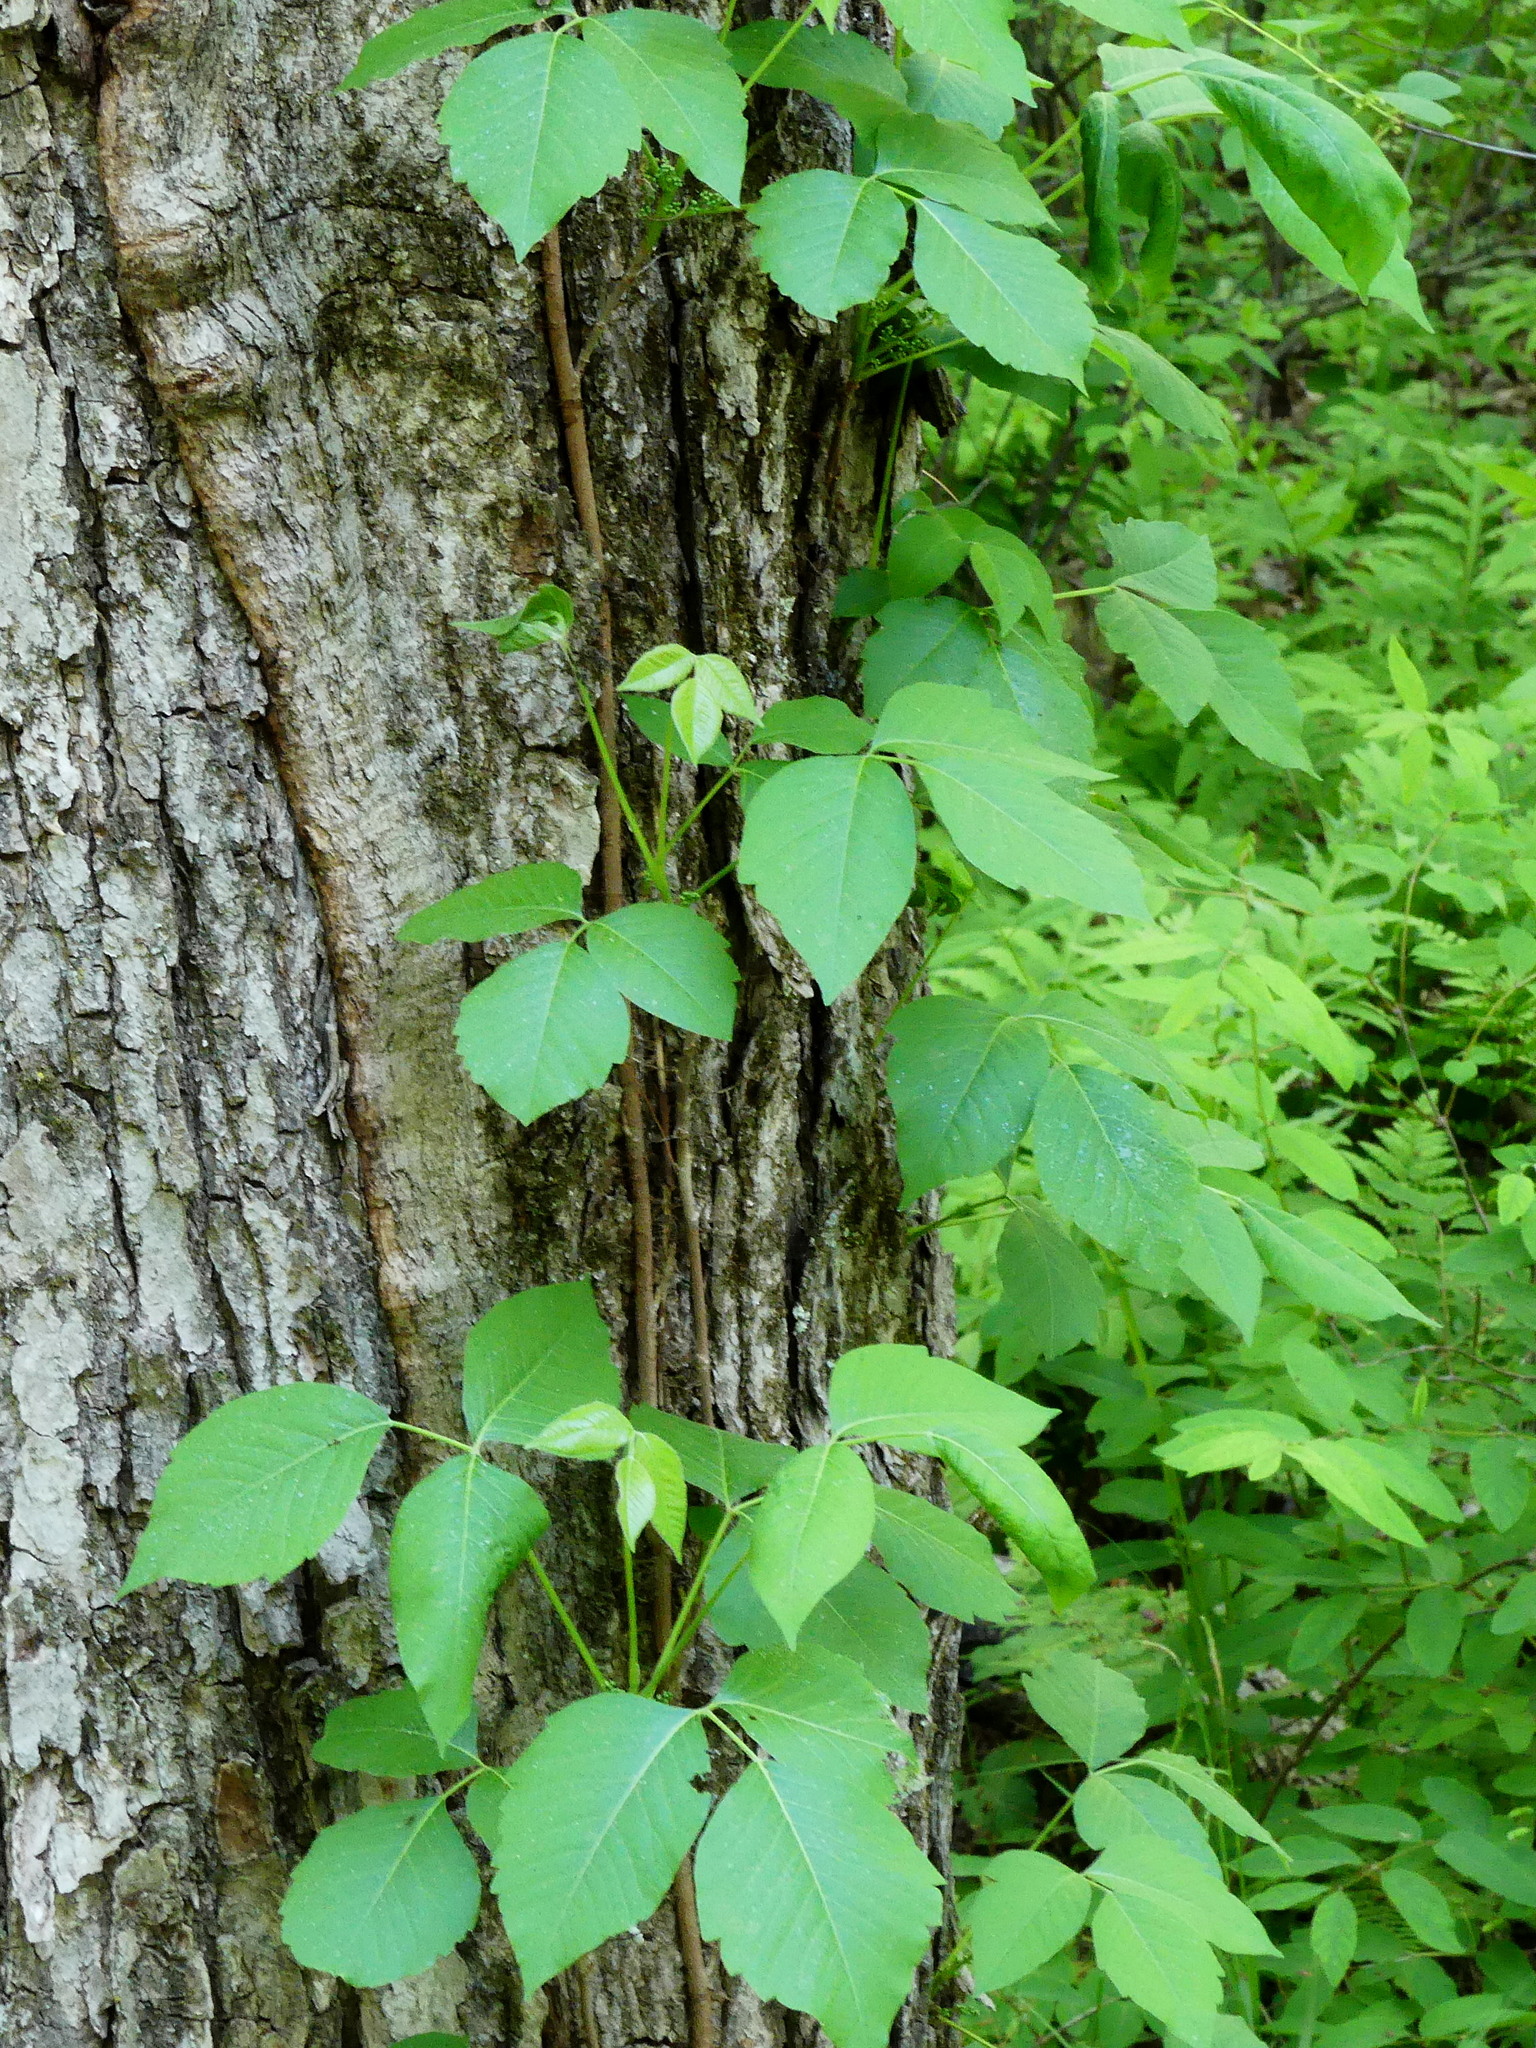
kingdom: Plantae
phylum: Tracheophyta
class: Magnoliopsida
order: Sapindales
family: Anacardiaceae
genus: Toxicodendron
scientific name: Toxicodendron radicans
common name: Poison ivy
